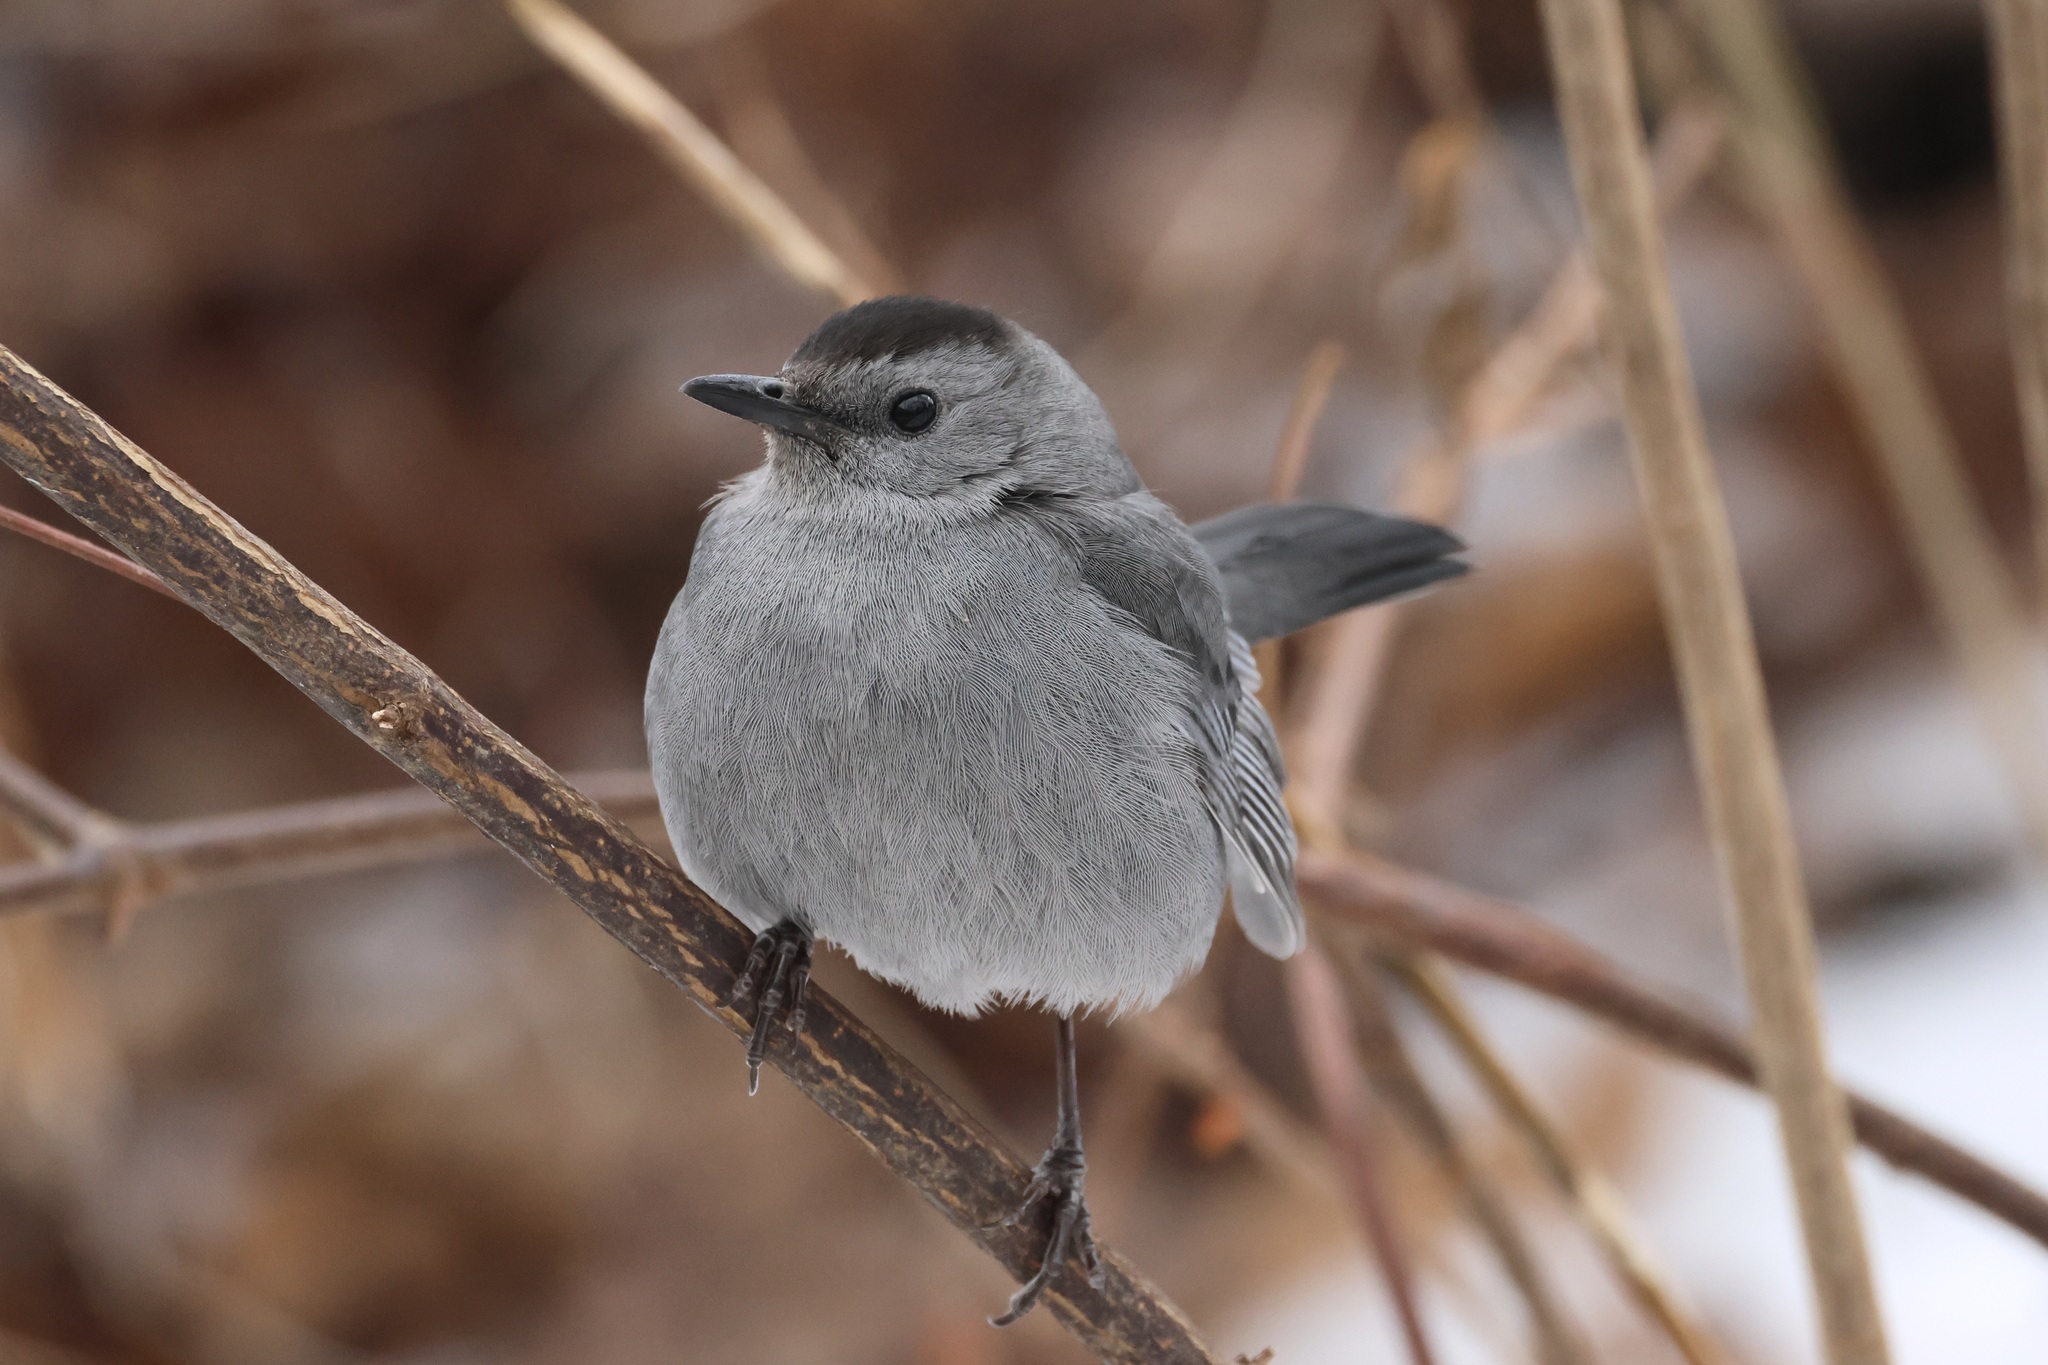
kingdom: Animalia
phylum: Chordata
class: Aves
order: Passeriformes
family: Mimidae
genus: Dumetella
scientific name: Dumetella carolinensis
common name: Gray catbird
